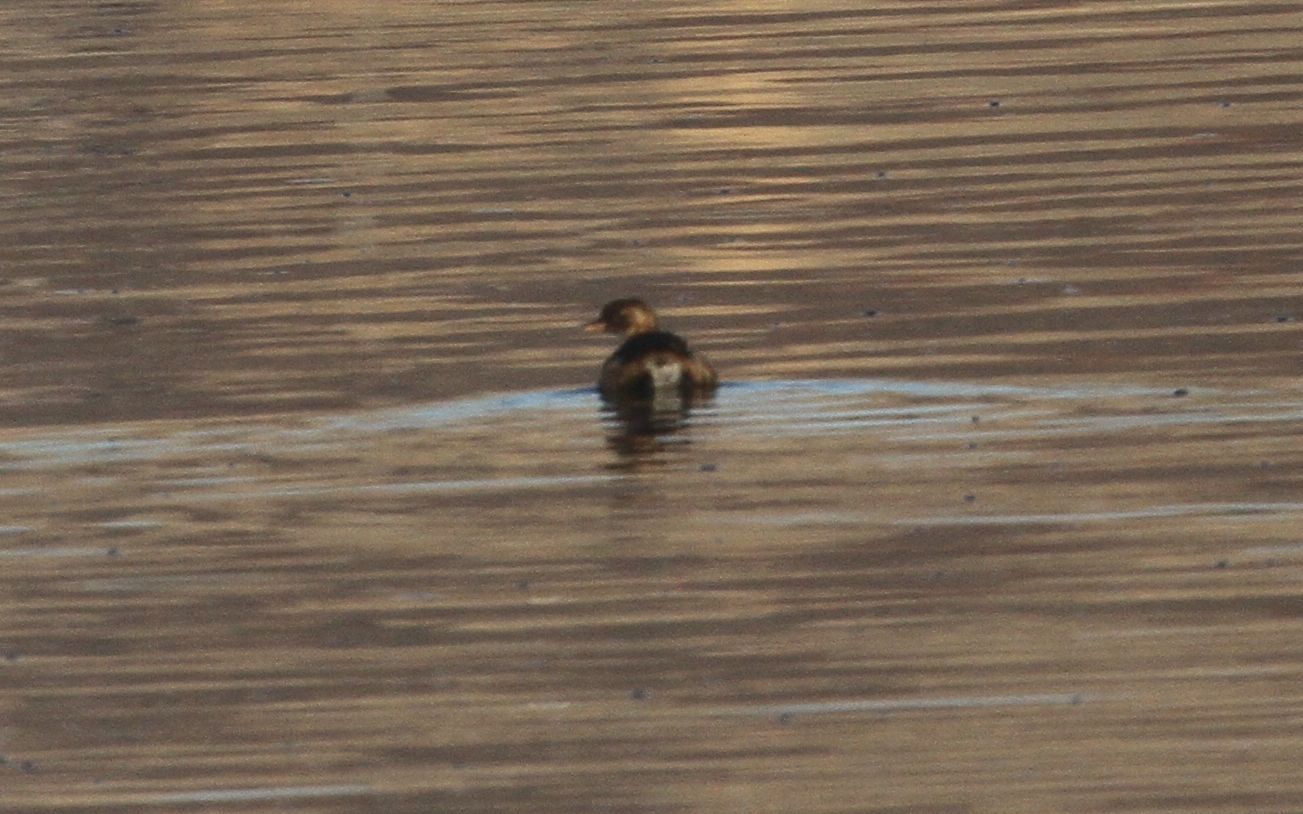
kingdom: Animalia
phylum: Chordata
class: Aves
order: Podicipediformes
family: Podicipedidae
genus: Tachybaptus
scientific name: Tachybaptus ruficollis
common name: Little grebe
